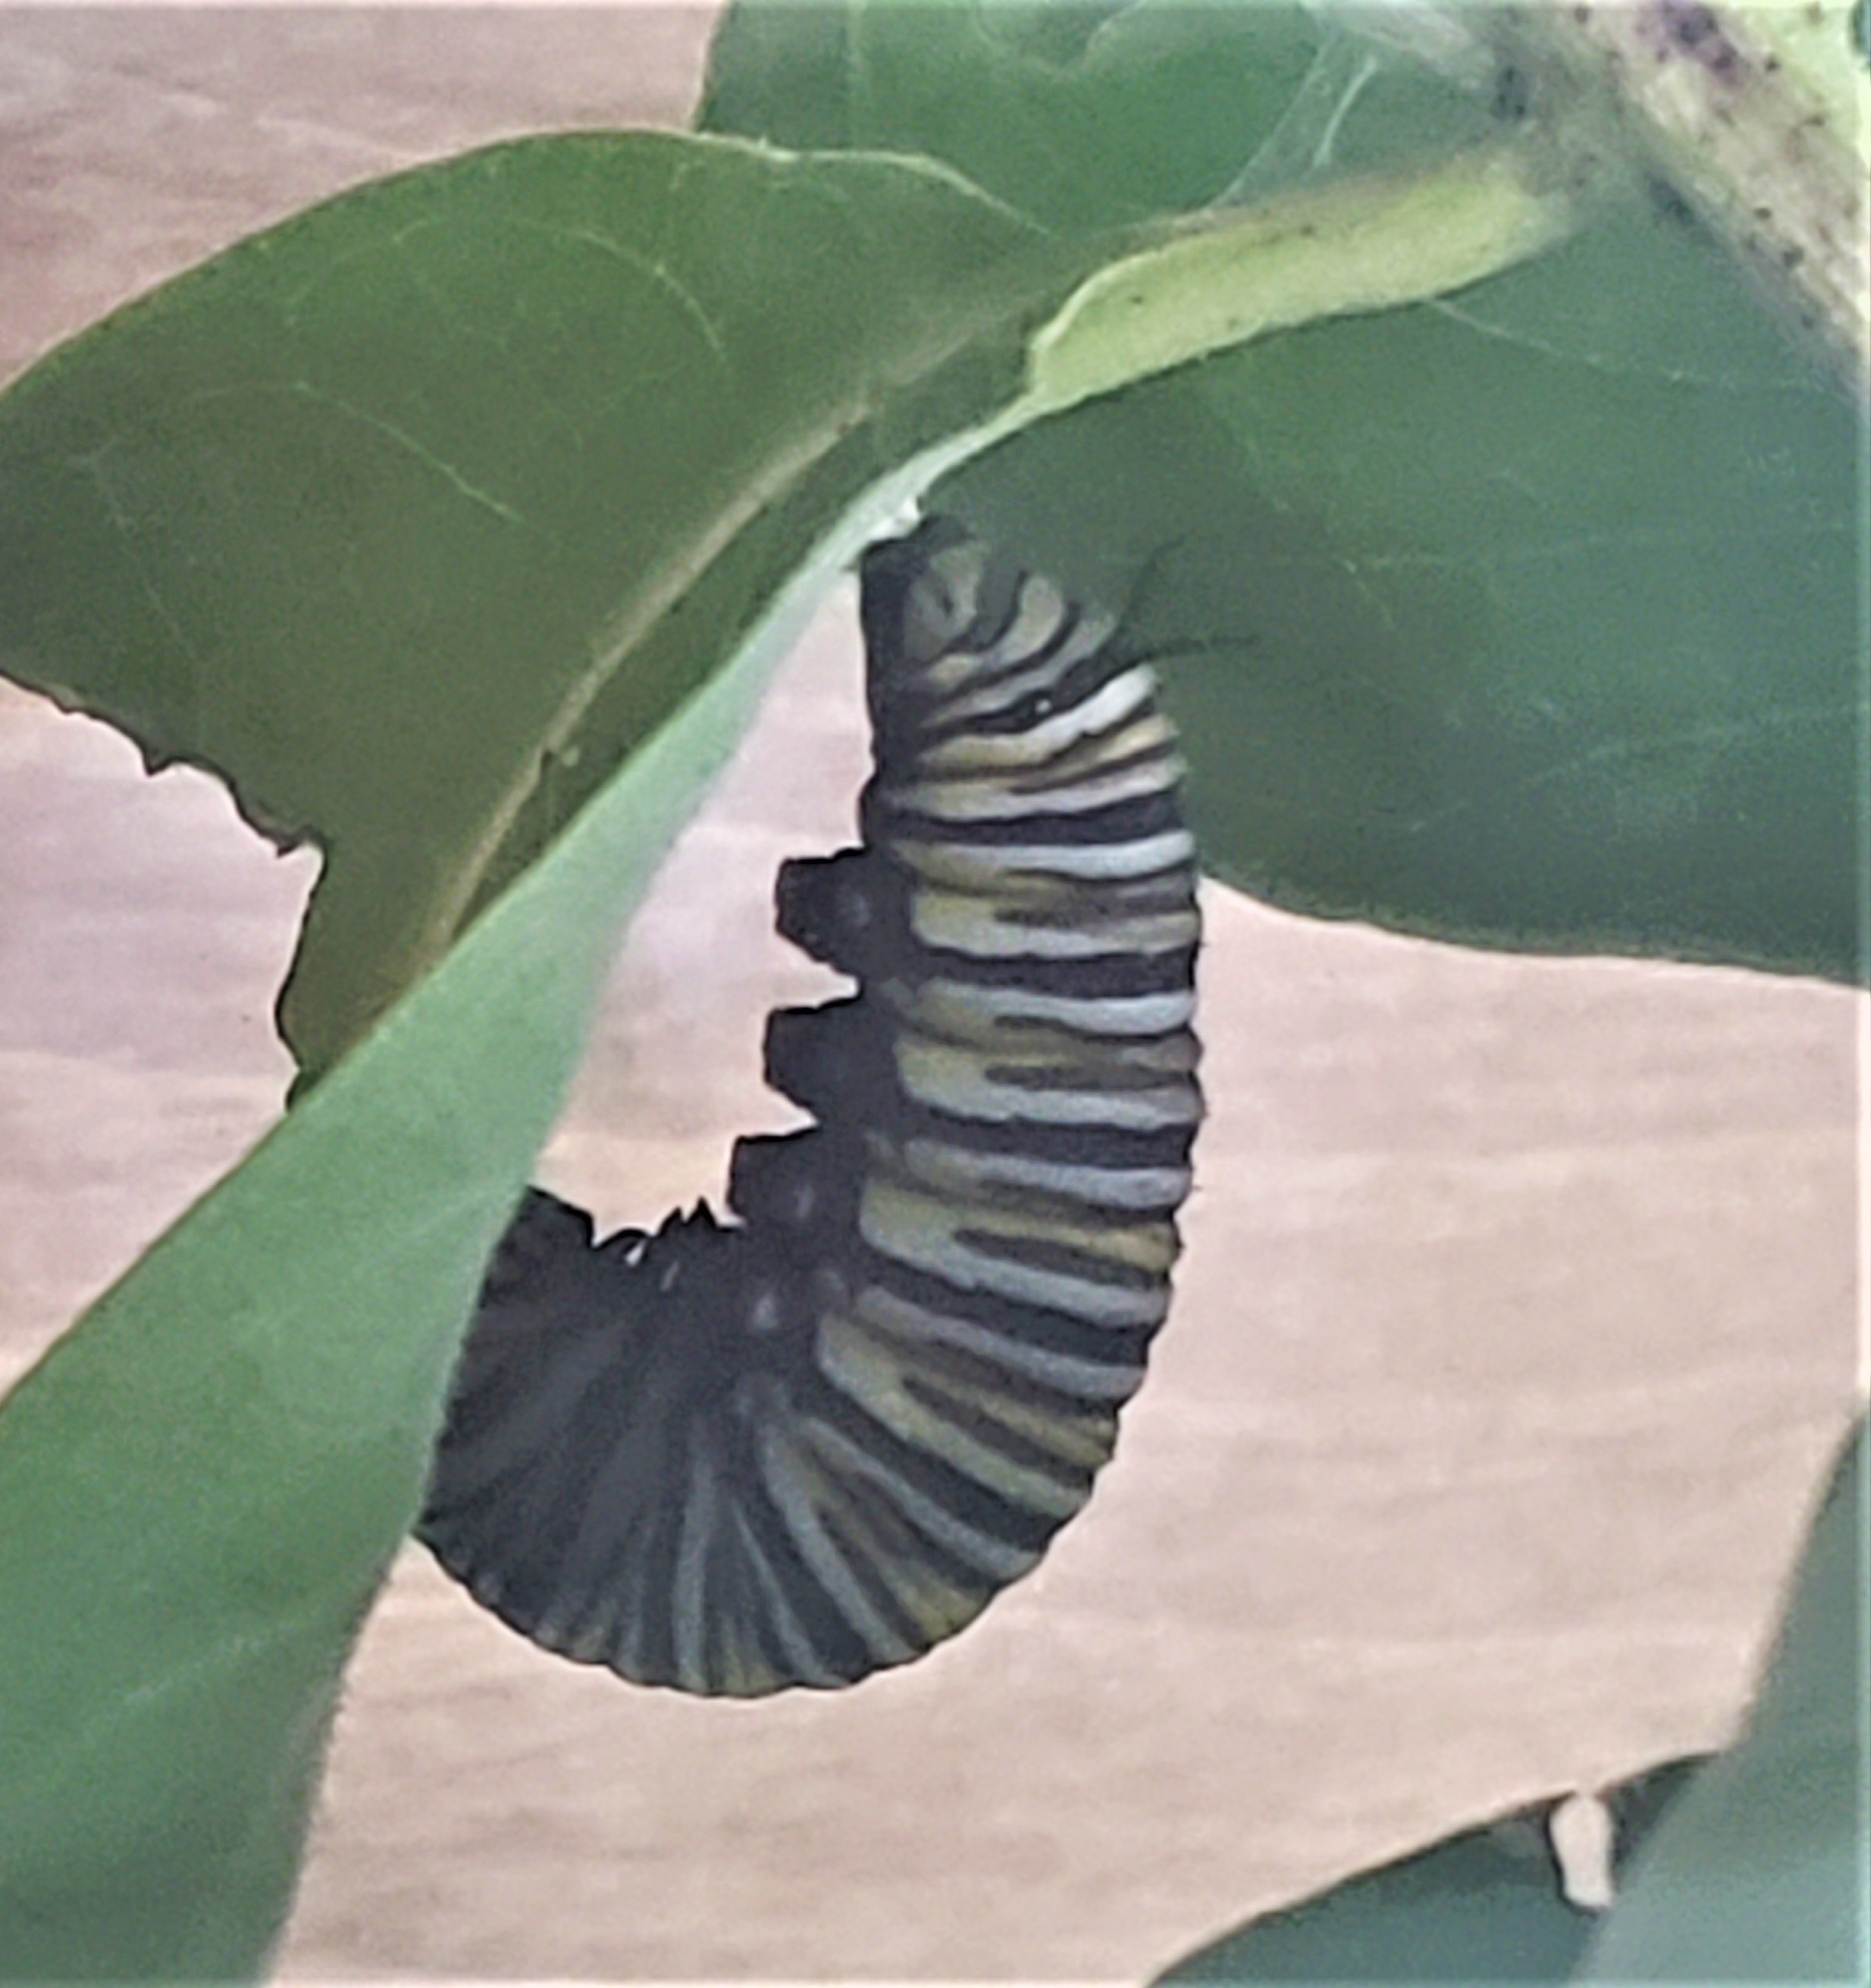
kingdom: Animalia
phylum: Arthropoda
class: Insecta
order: Lepidoptera
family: Nymphalidae
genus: Danaus
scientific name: Danaus plexippus
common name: Monarch
